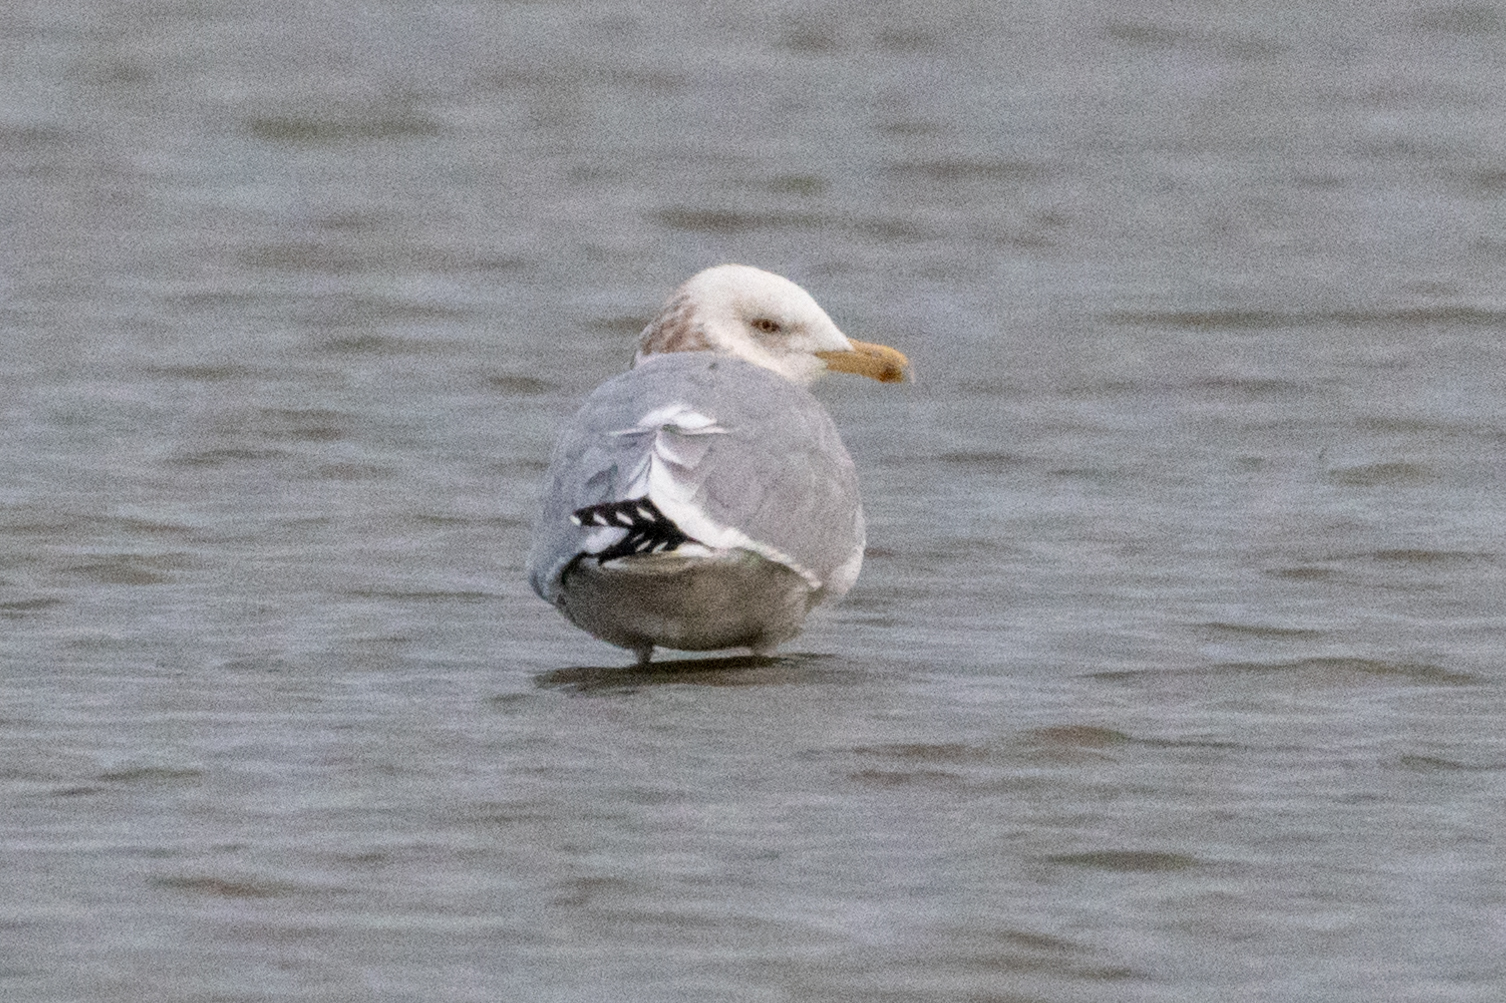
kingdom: Animalia
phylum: Chordata
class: Aves
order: Charadriiformes
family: Laridae
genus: Larus
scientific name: Larus argentatus
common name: Herring gull
